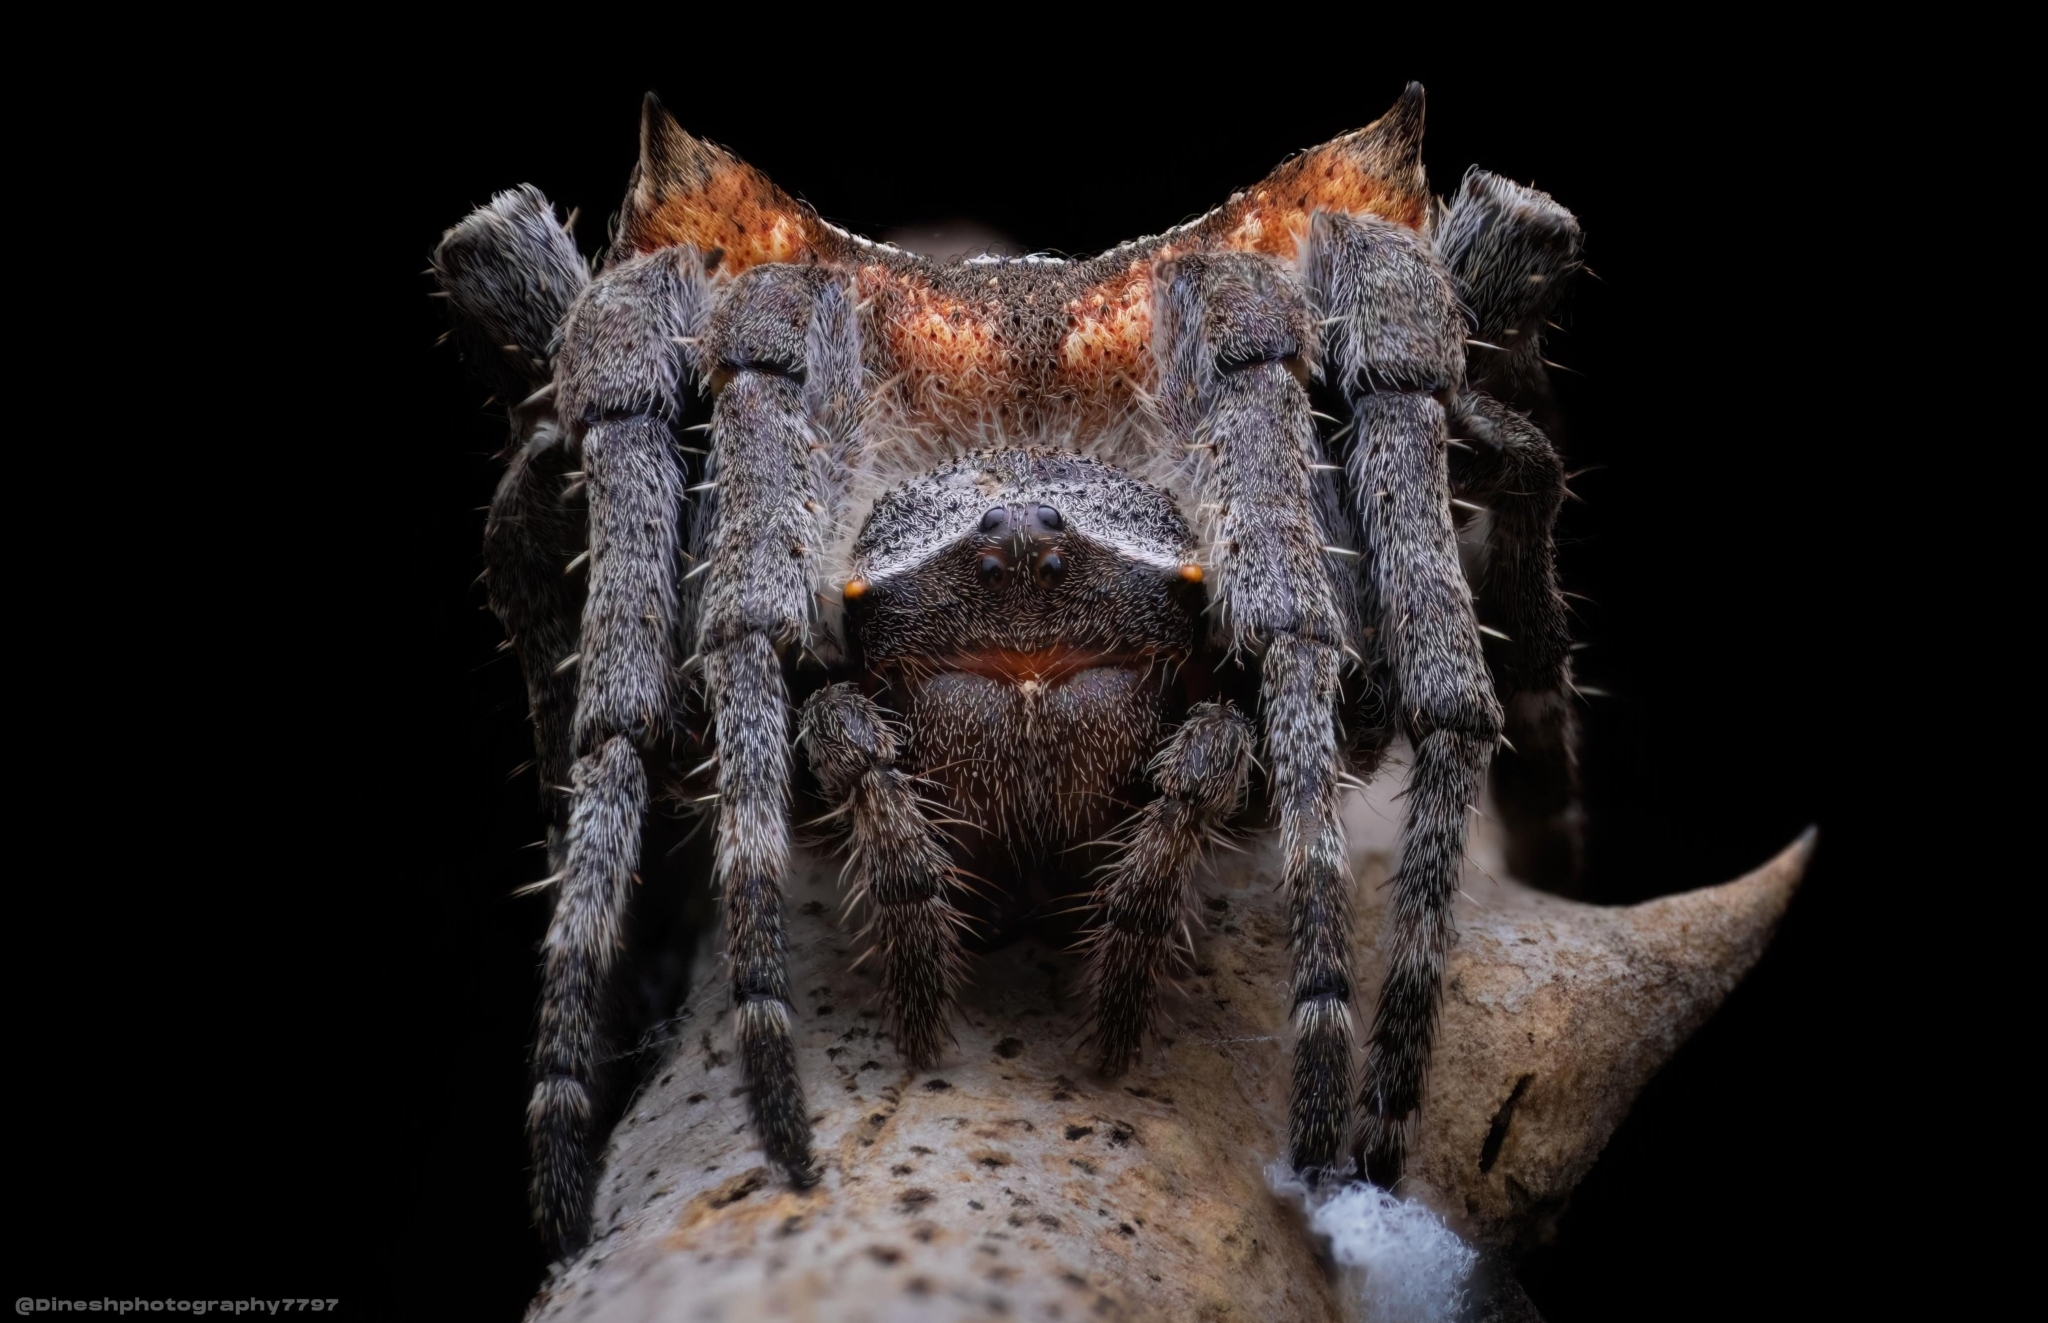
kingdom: Animalia
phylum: Arthropoda
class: Arachnida
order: Araneae
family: Araneidae
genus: Parawixia
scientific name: Parawixia dehaani
